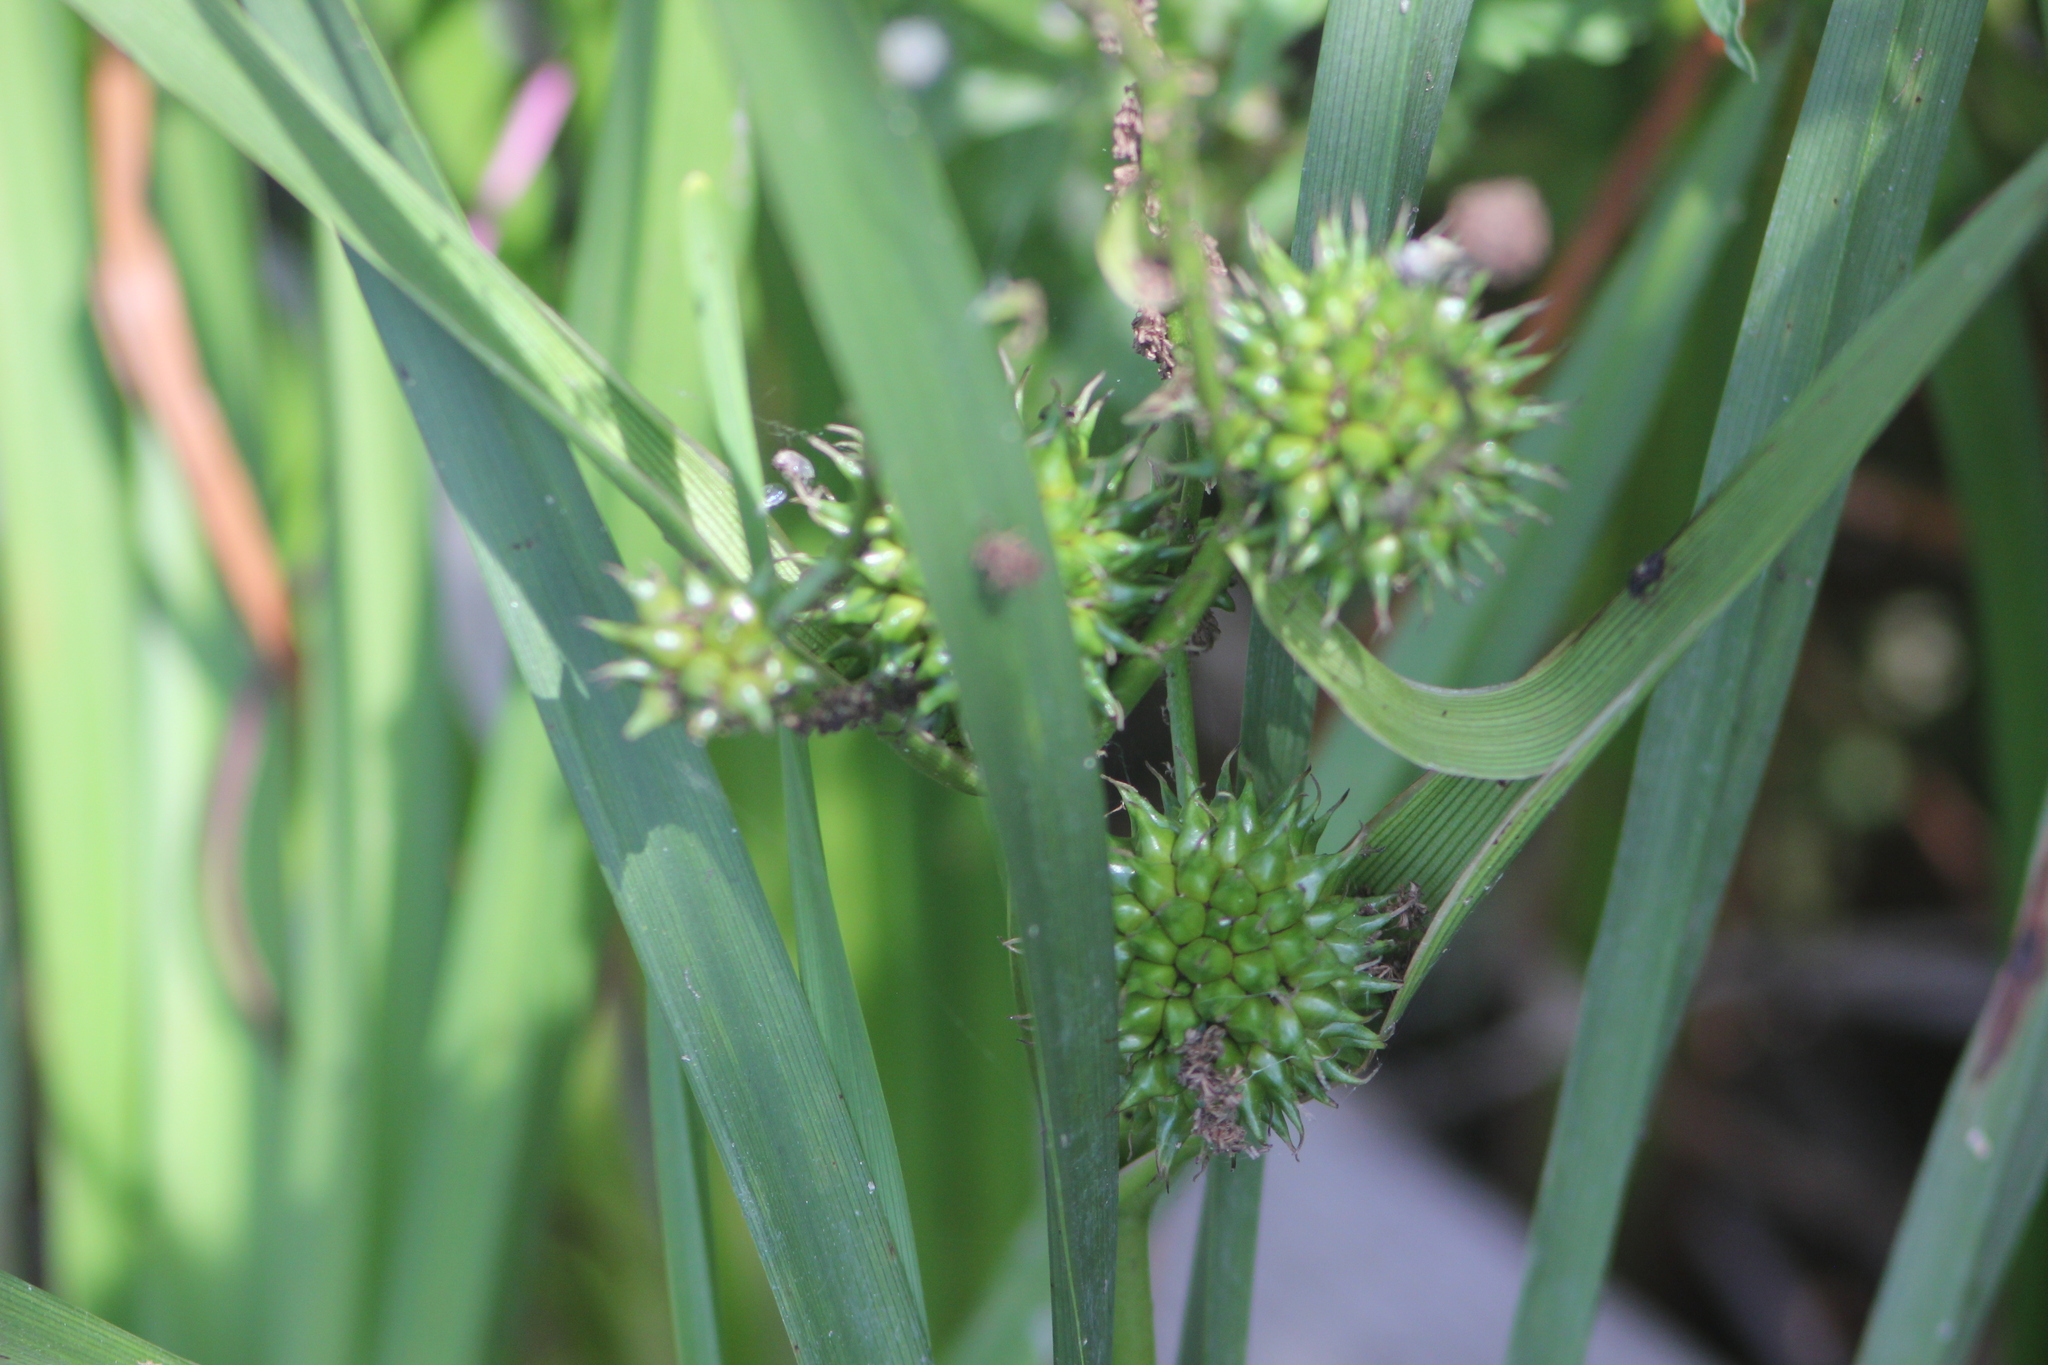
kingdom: Plantae
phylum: Tracheophyta
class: Liliopsida
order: Poales
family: Typhaceae
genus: Sparganium
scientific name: Sparganium erectum
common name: Branched bur-reed
